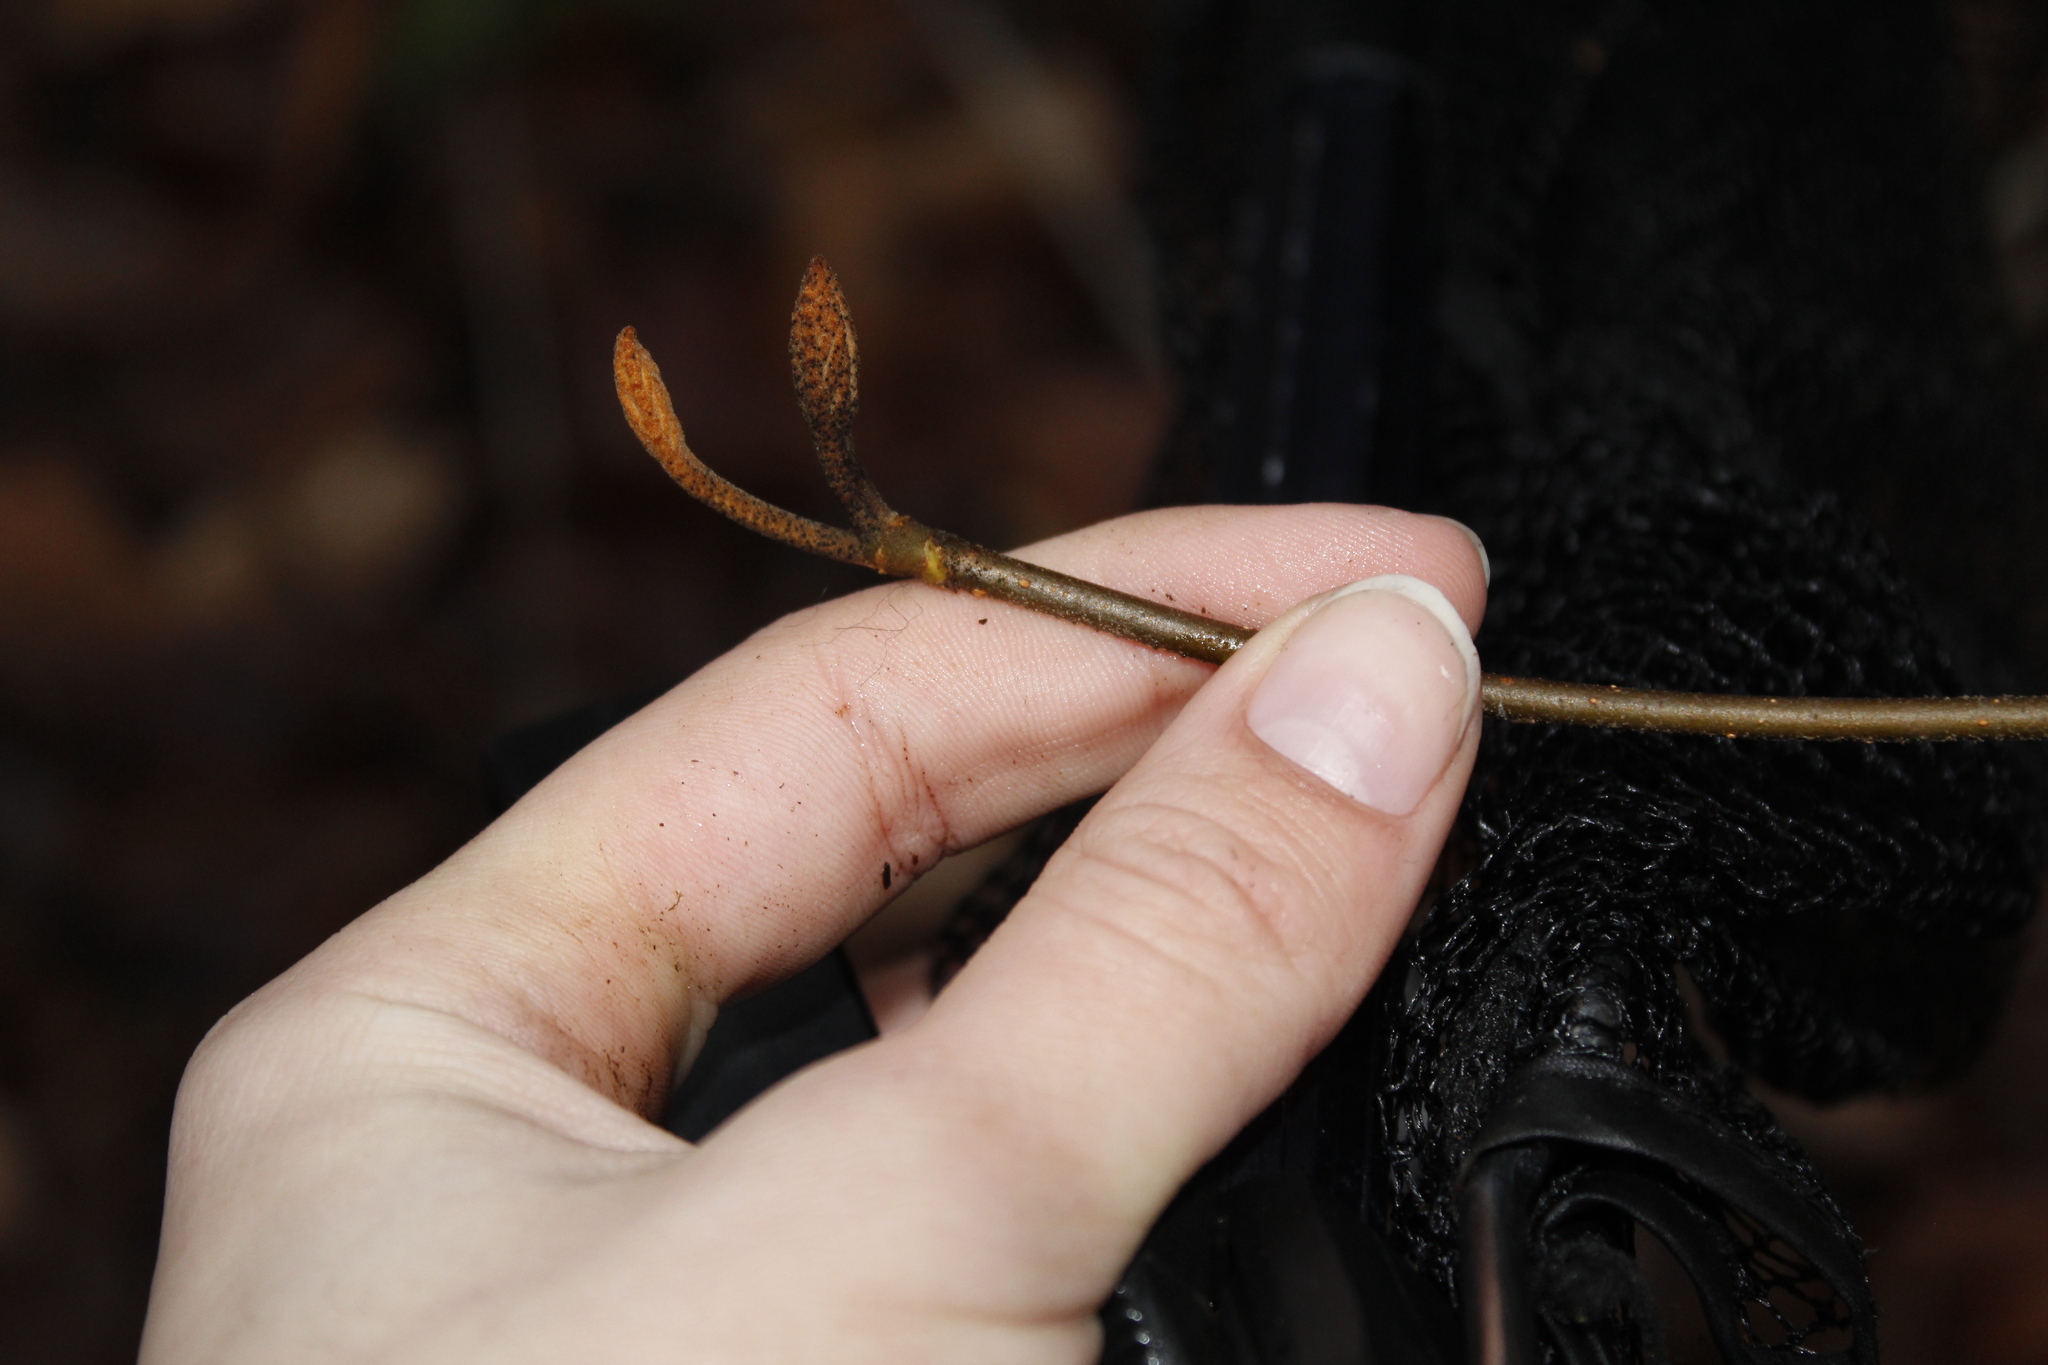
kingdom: Plantae
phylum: Tracheophyta
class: Magnoliopsida
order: Dipsacales
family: Viburnaceae
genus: Viburnum
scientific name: Viburnum lantanoides
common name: Hobblebush
